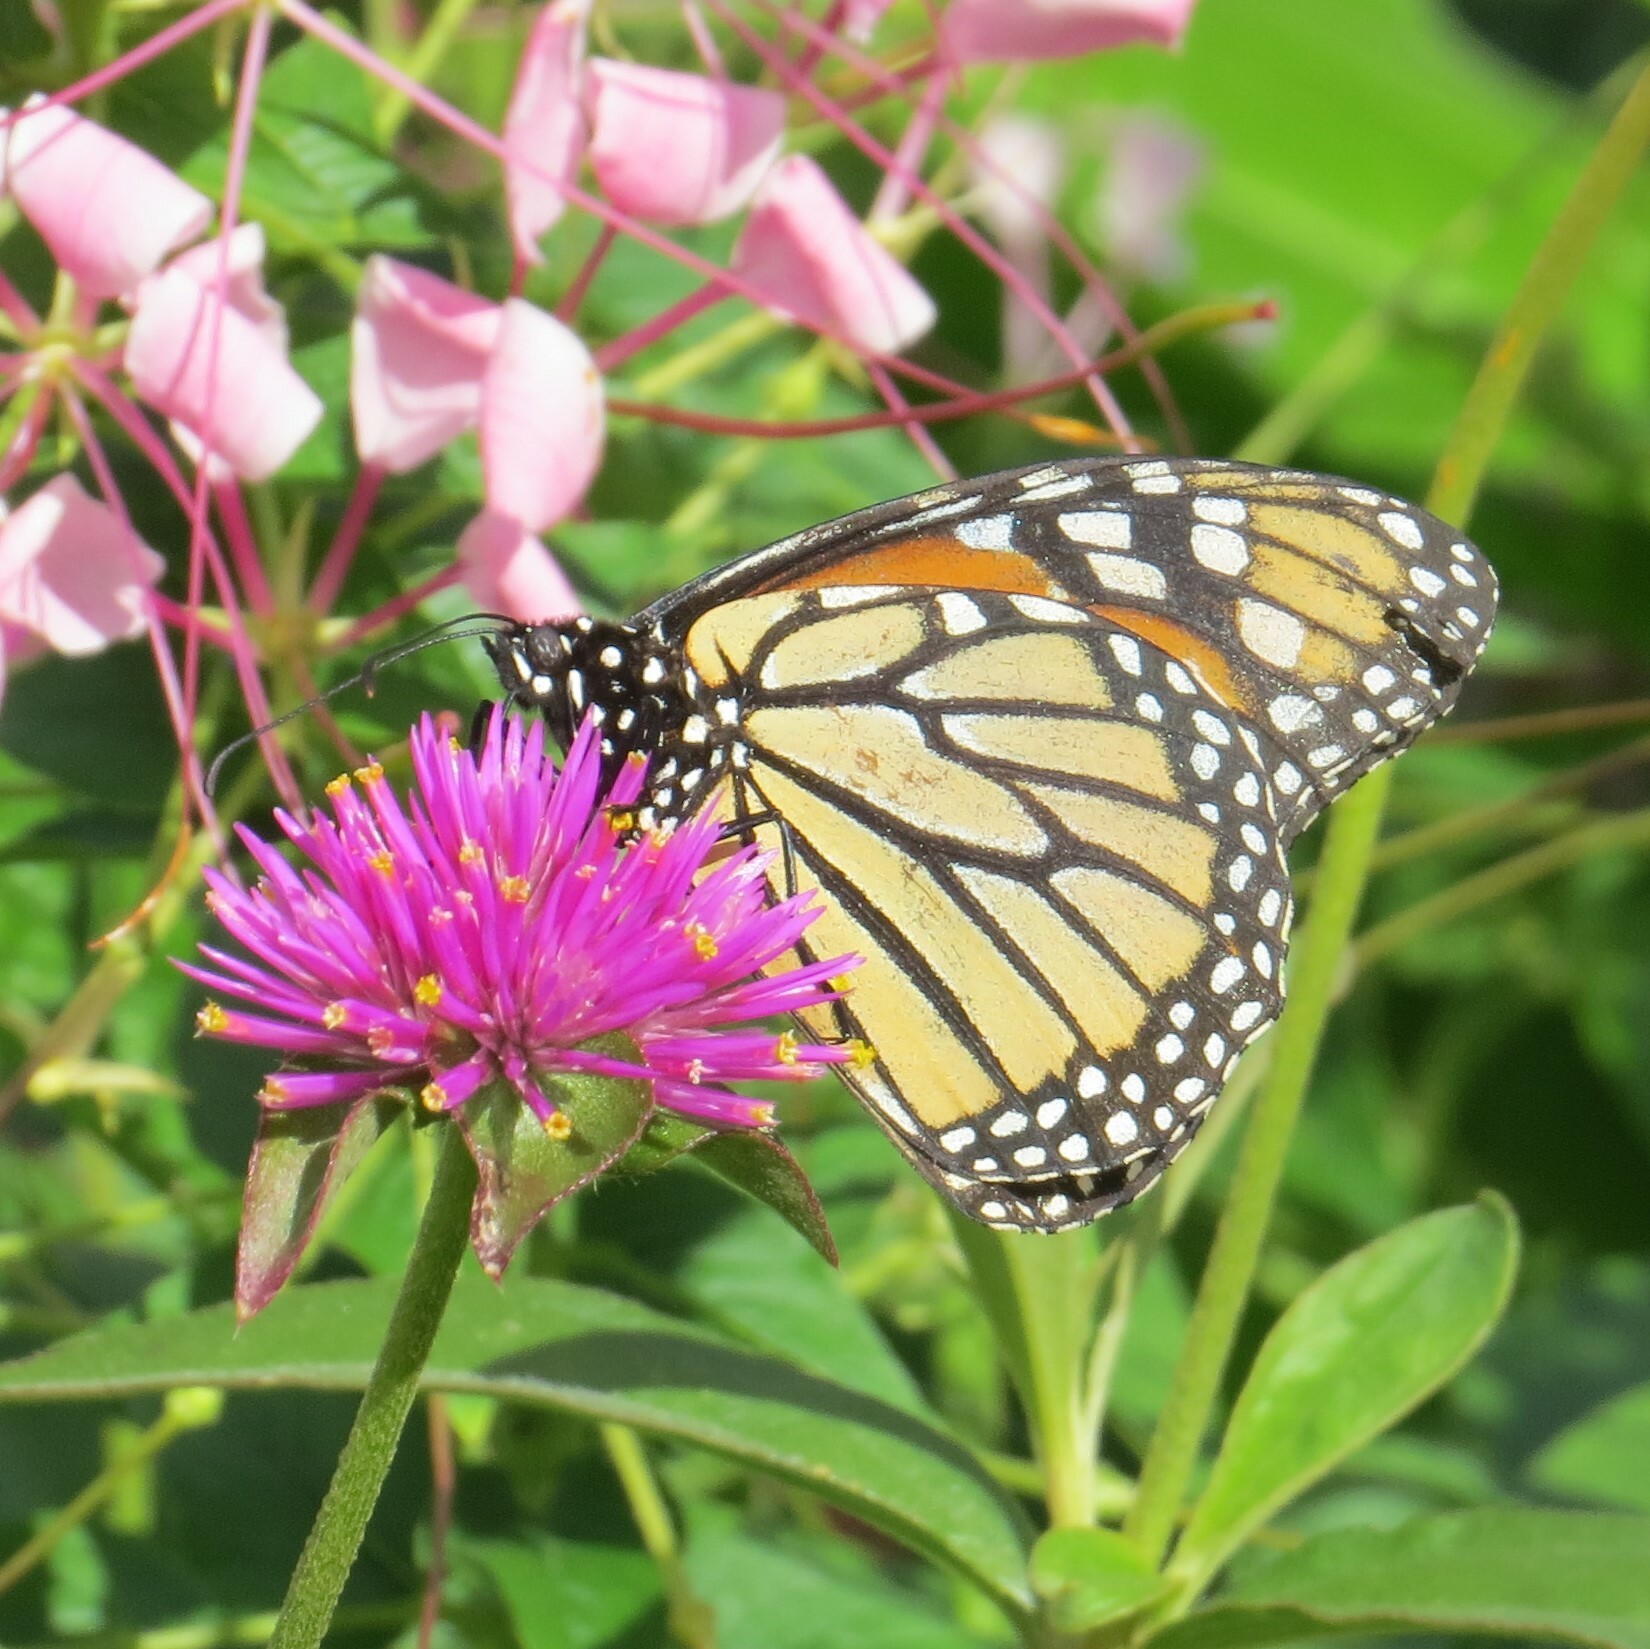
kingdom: Animalia
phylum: Arthropoda
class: Insecta
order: Lepidoptera
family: Nymphalidae
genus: Danaus
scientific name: Danaus plexippus
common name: Monarch
